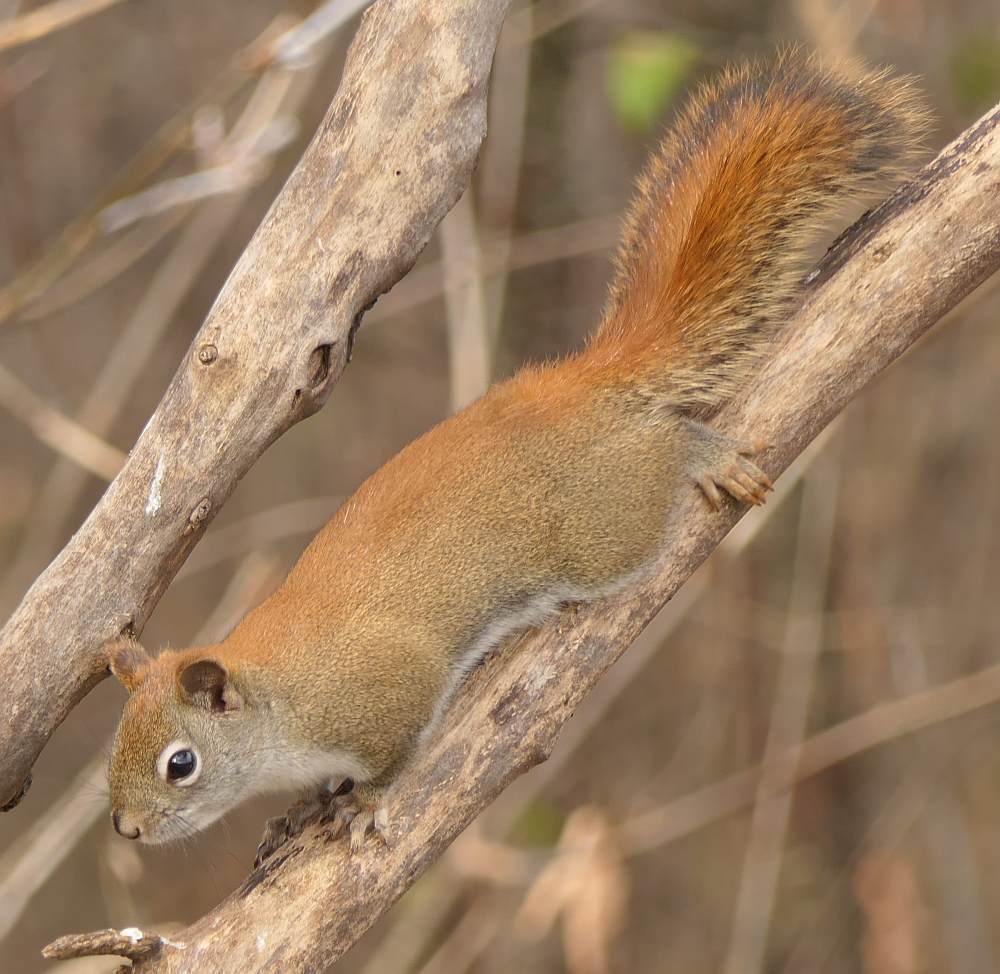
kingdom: Animalia
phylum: Chordata
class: Mammalia
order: Rodentia
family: Sciuridae
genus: Tamiasciurus
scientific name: Tamiasciurus hudsonicus
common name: Red squirrel
